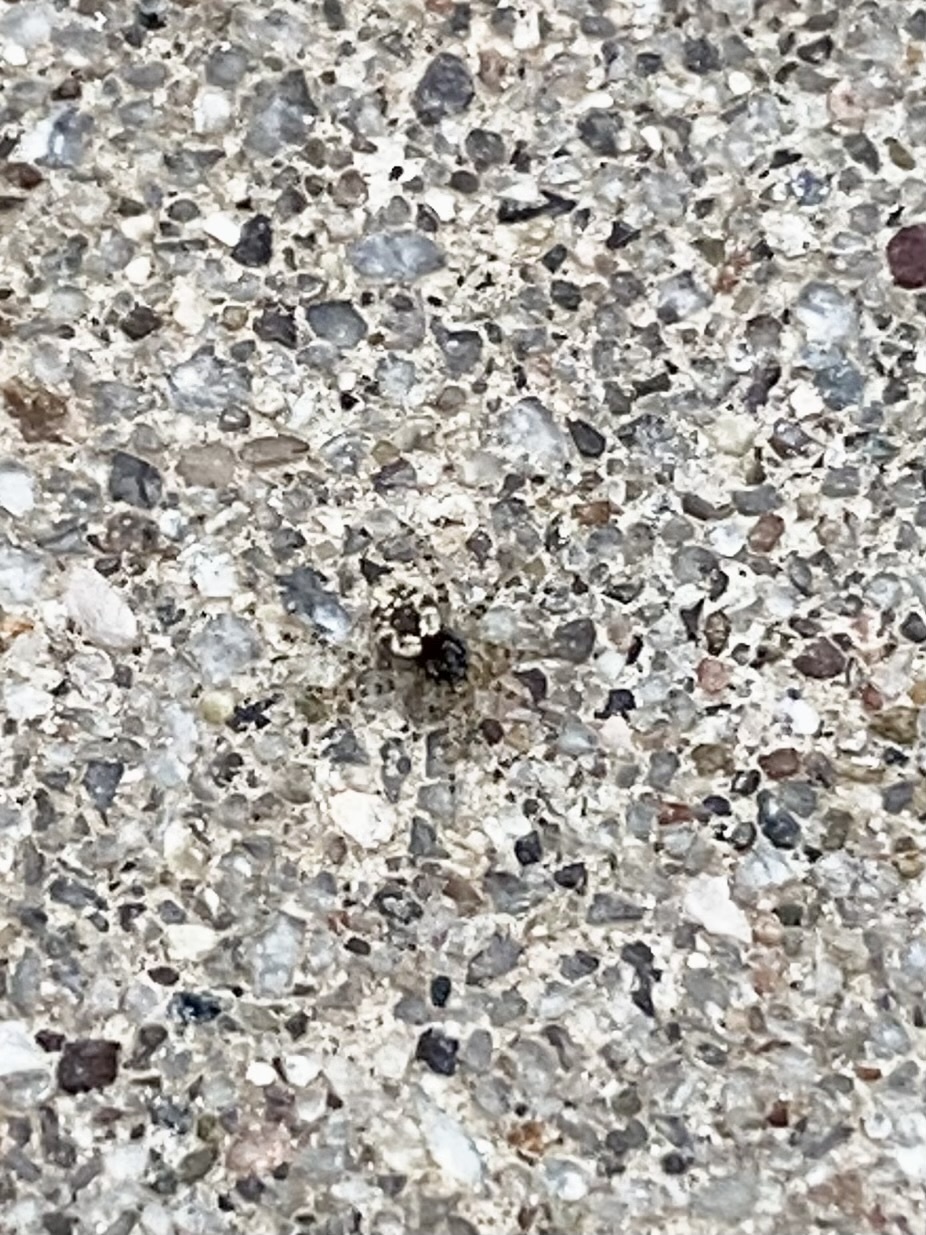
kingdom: Animalia
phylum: Arthropoda
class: Arachnida
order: Araneae
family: Oecobiidae
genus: Oecobius
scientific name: Oecobius
